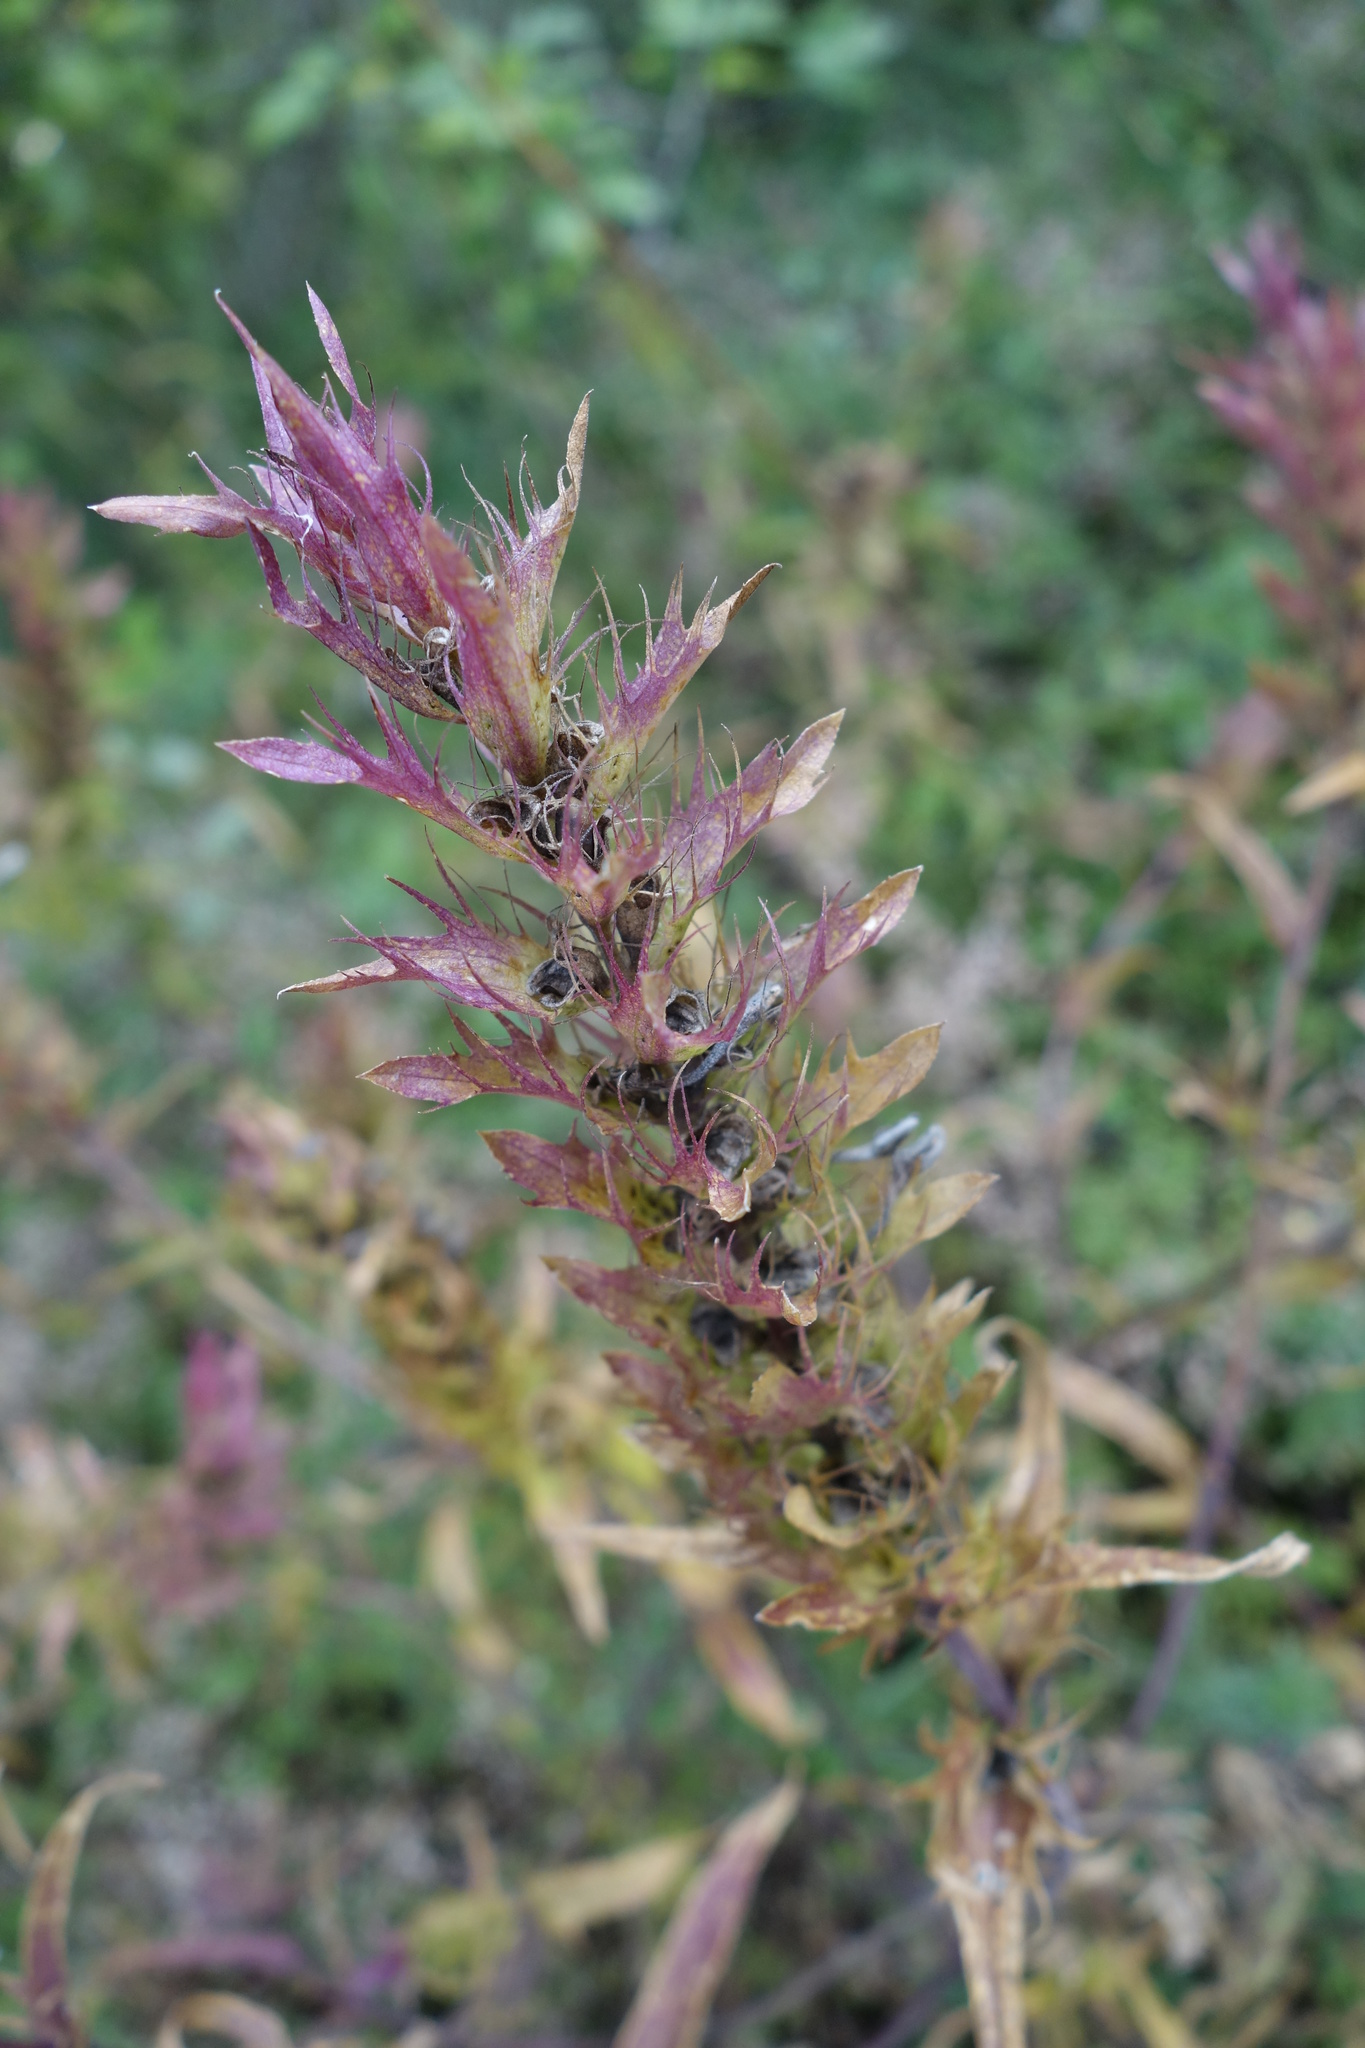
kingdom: Plantae
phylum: Tracheophyta
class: Magnoliopsida
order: Lamiales
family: Orobanchaceae
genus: Melampyrum
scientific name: Melampyrum arvense
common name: Field cow-wheat
